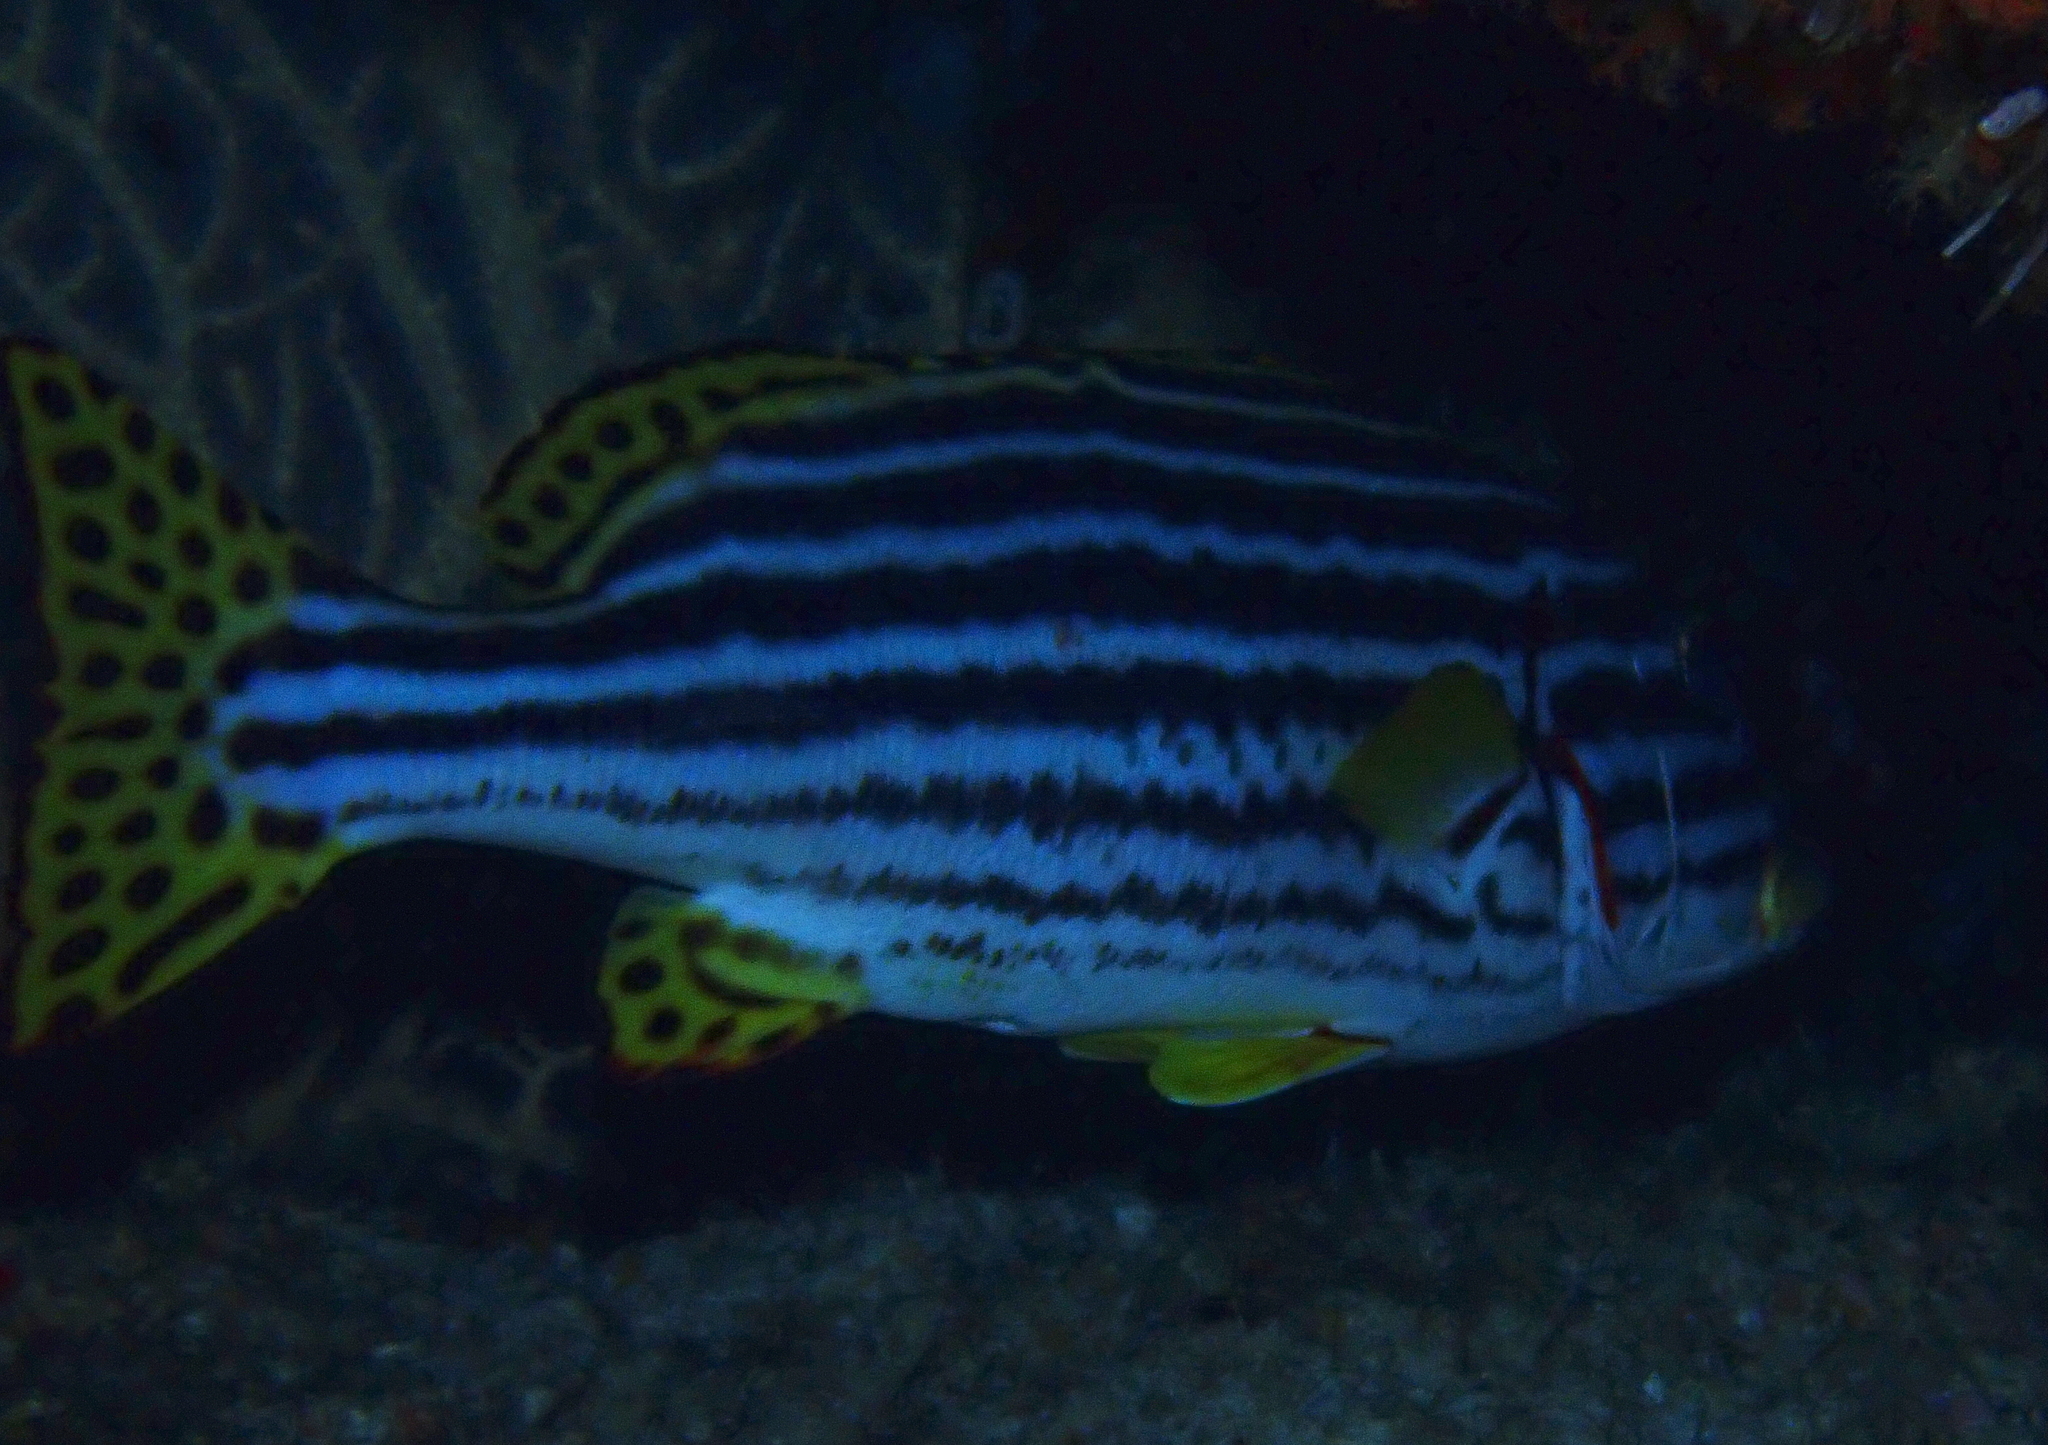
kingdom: Animalia
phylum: Chordata
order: Perciformes
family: Haemulidae
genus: Plectorhinchus
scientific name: Plectorhinchus vittatus
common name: Oriental sweetlips
